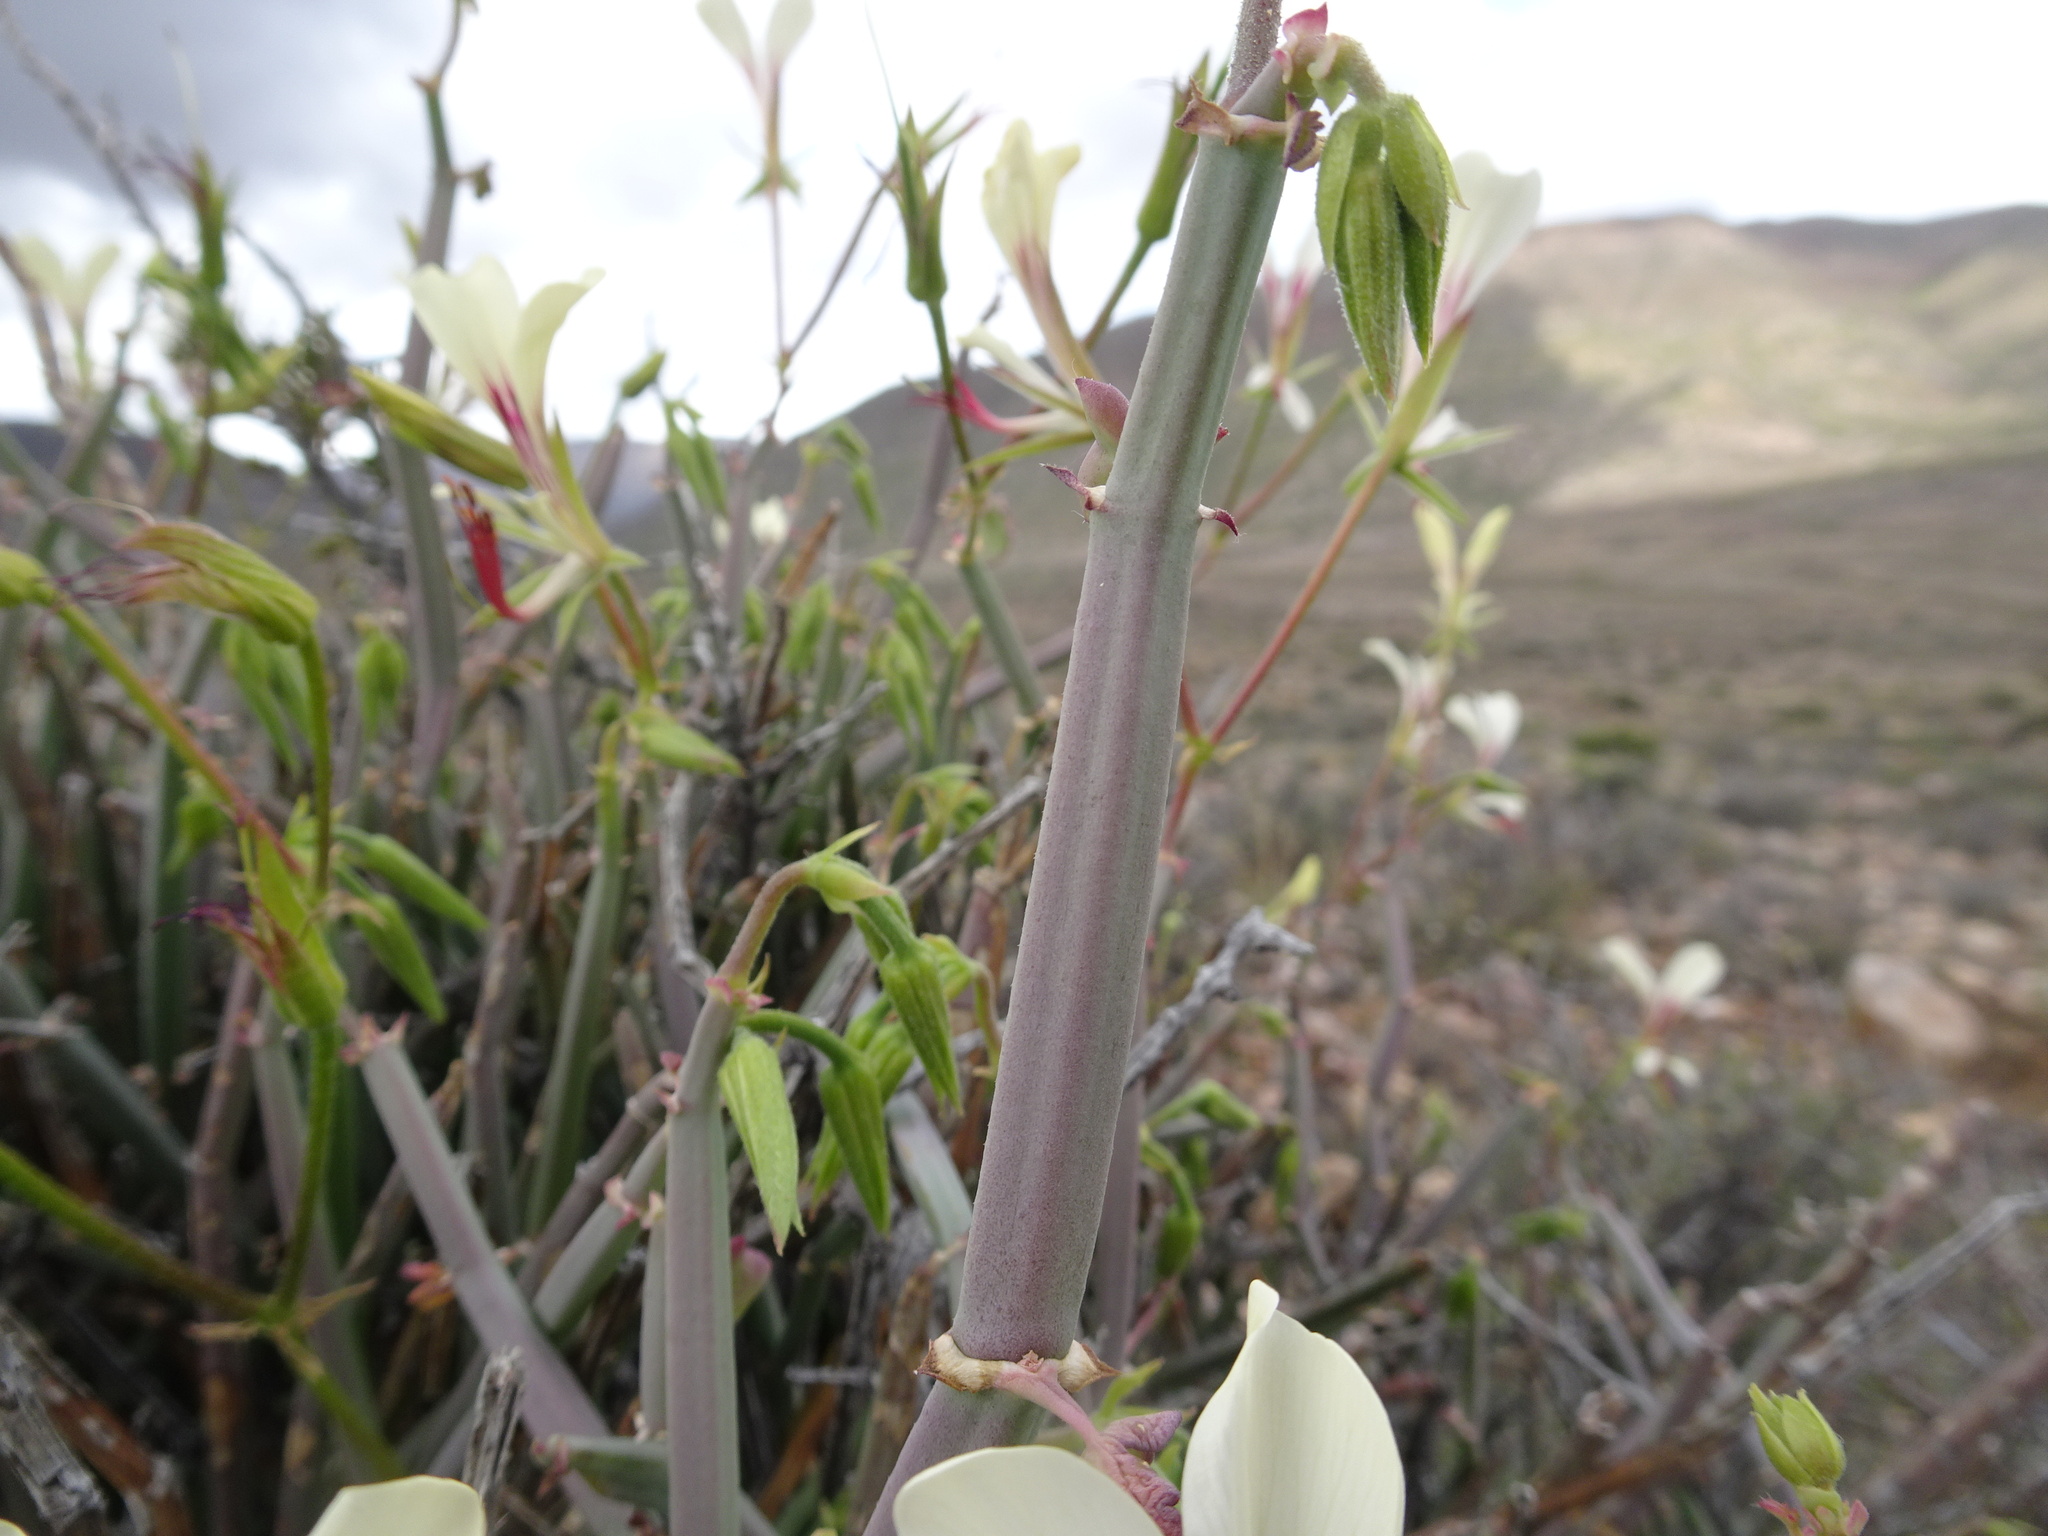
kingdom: Plantae
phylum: Tracheophyta
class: Magnoliopsida
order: Geraniales
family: Geraniaceae
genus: Pelargonium
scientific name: Pelargonium tetragonum
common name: Square-stack crane's-bill
